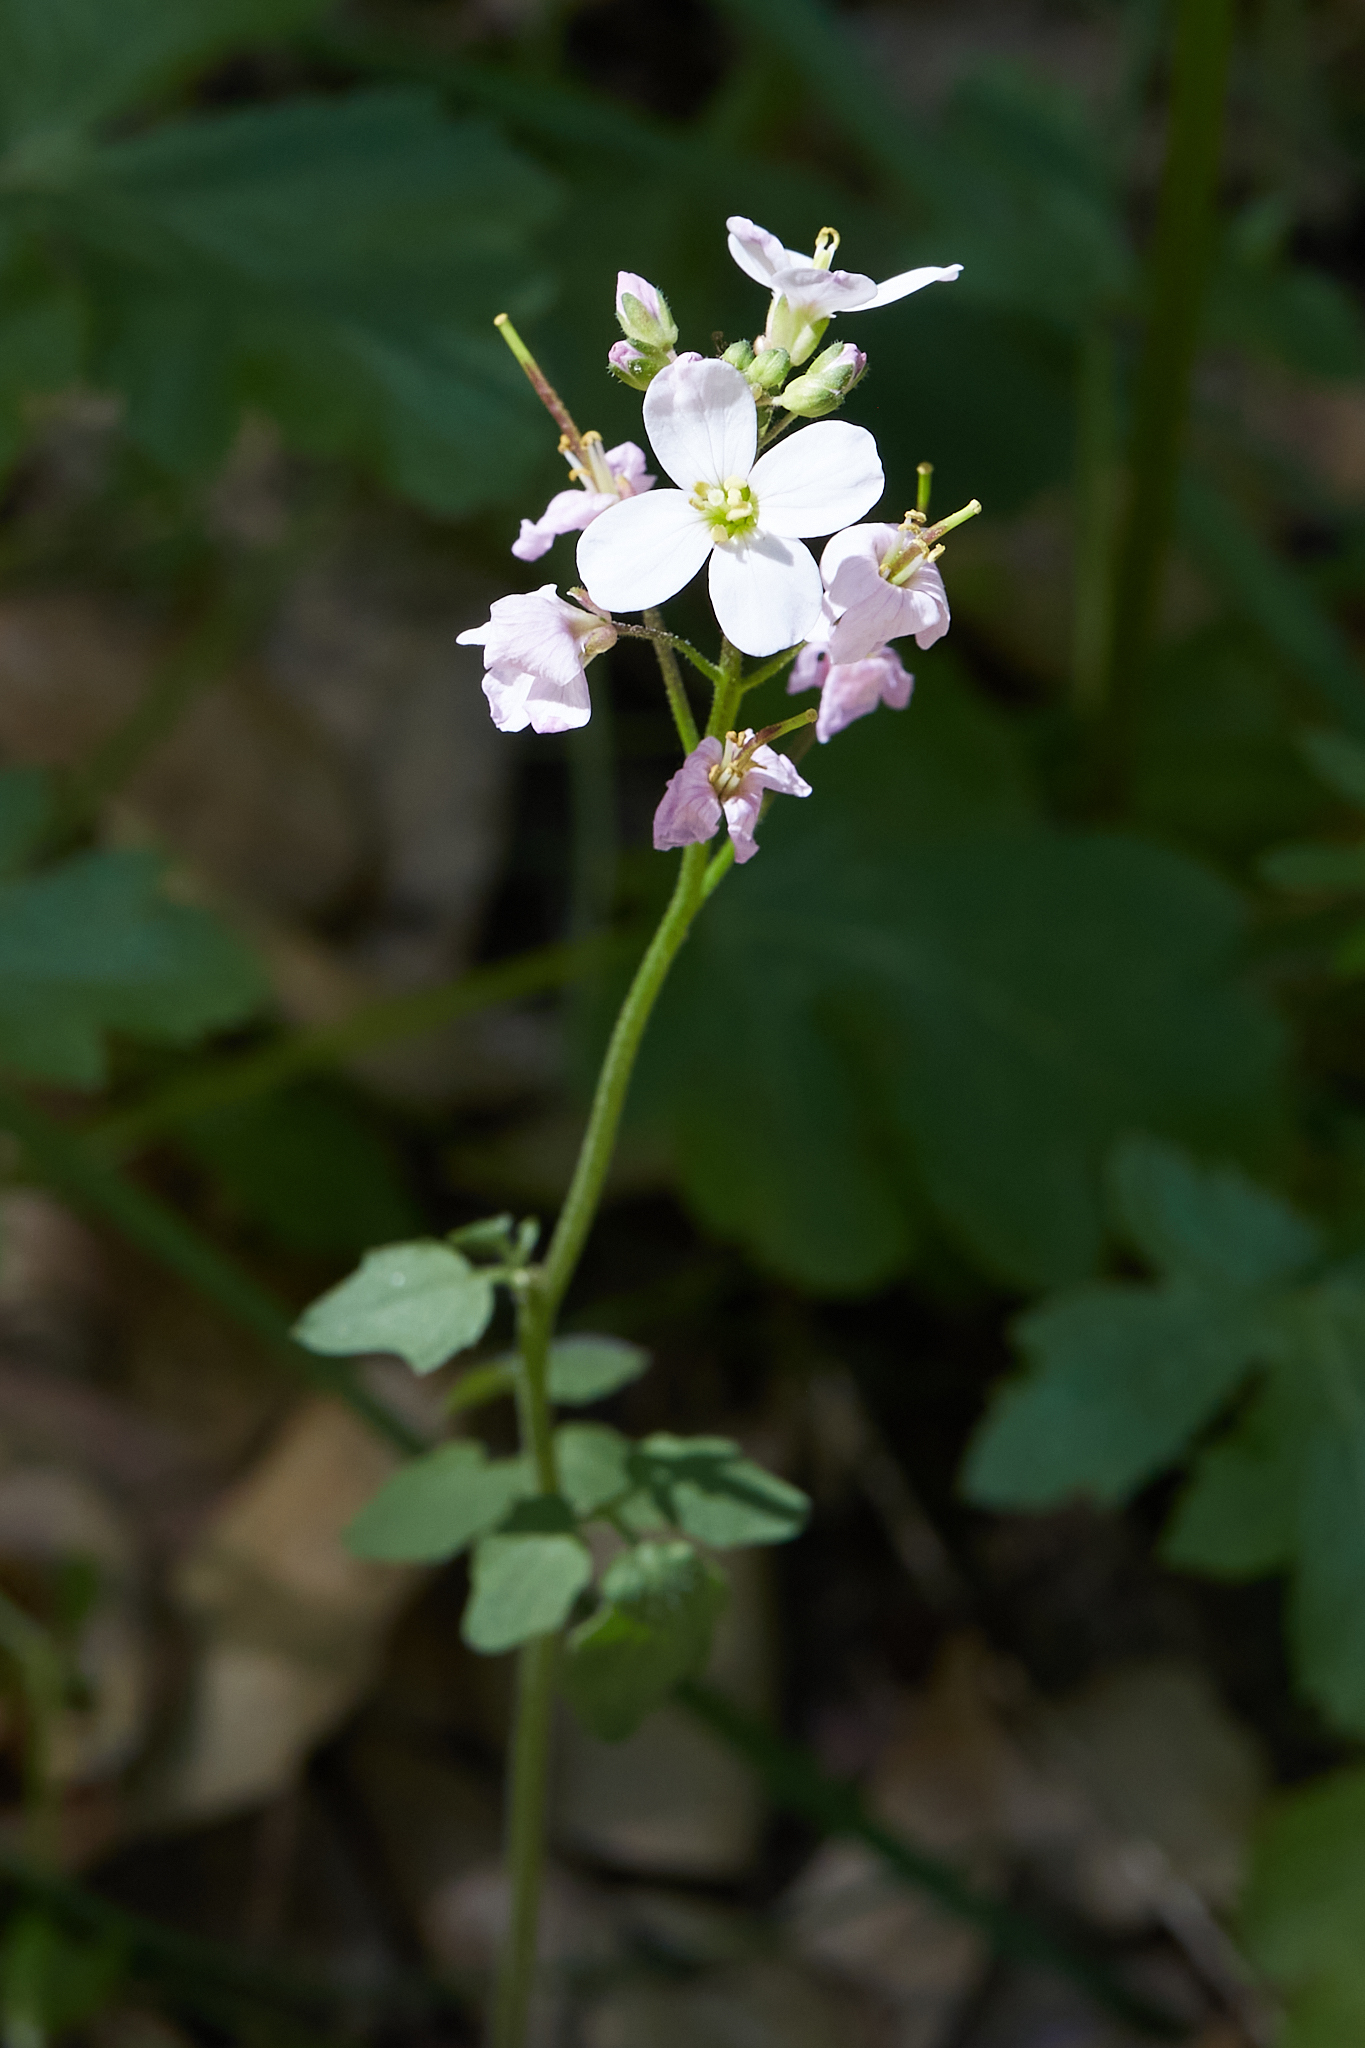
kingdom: Plantae
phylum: Tracheophyta
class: Magnoliopsida
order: Brassicales
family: Brassicaceae
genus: Cardamine
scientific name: Cardamine californica
